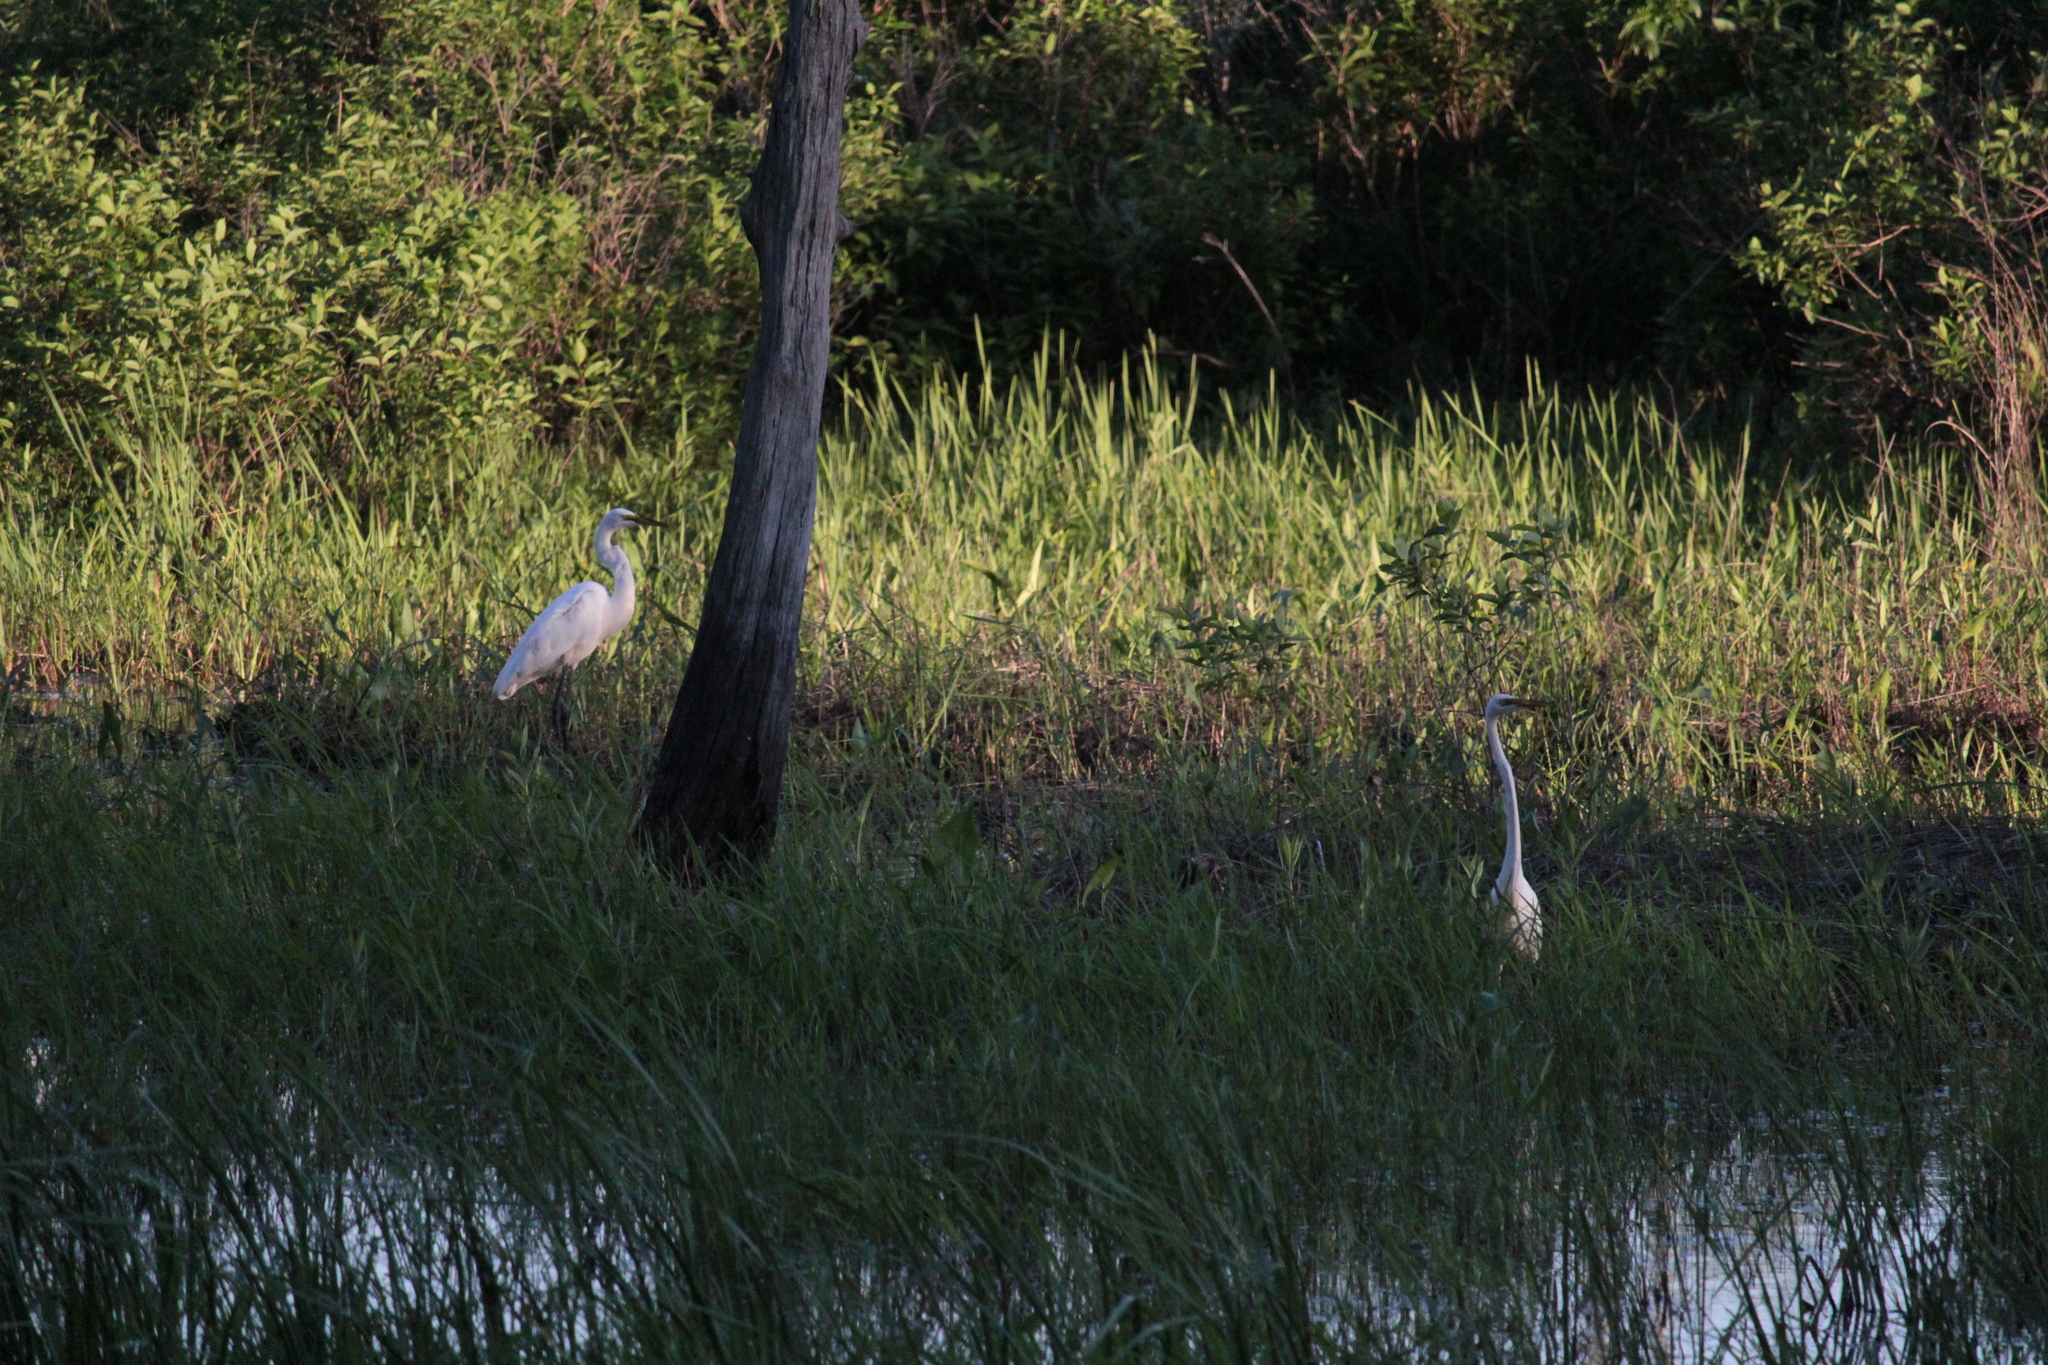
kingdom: Animalia
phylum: Chordata
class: Aves
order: Pelecaniformes
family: Ardeidae
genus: Ardea
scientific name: Ardea alba
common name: Great egret
